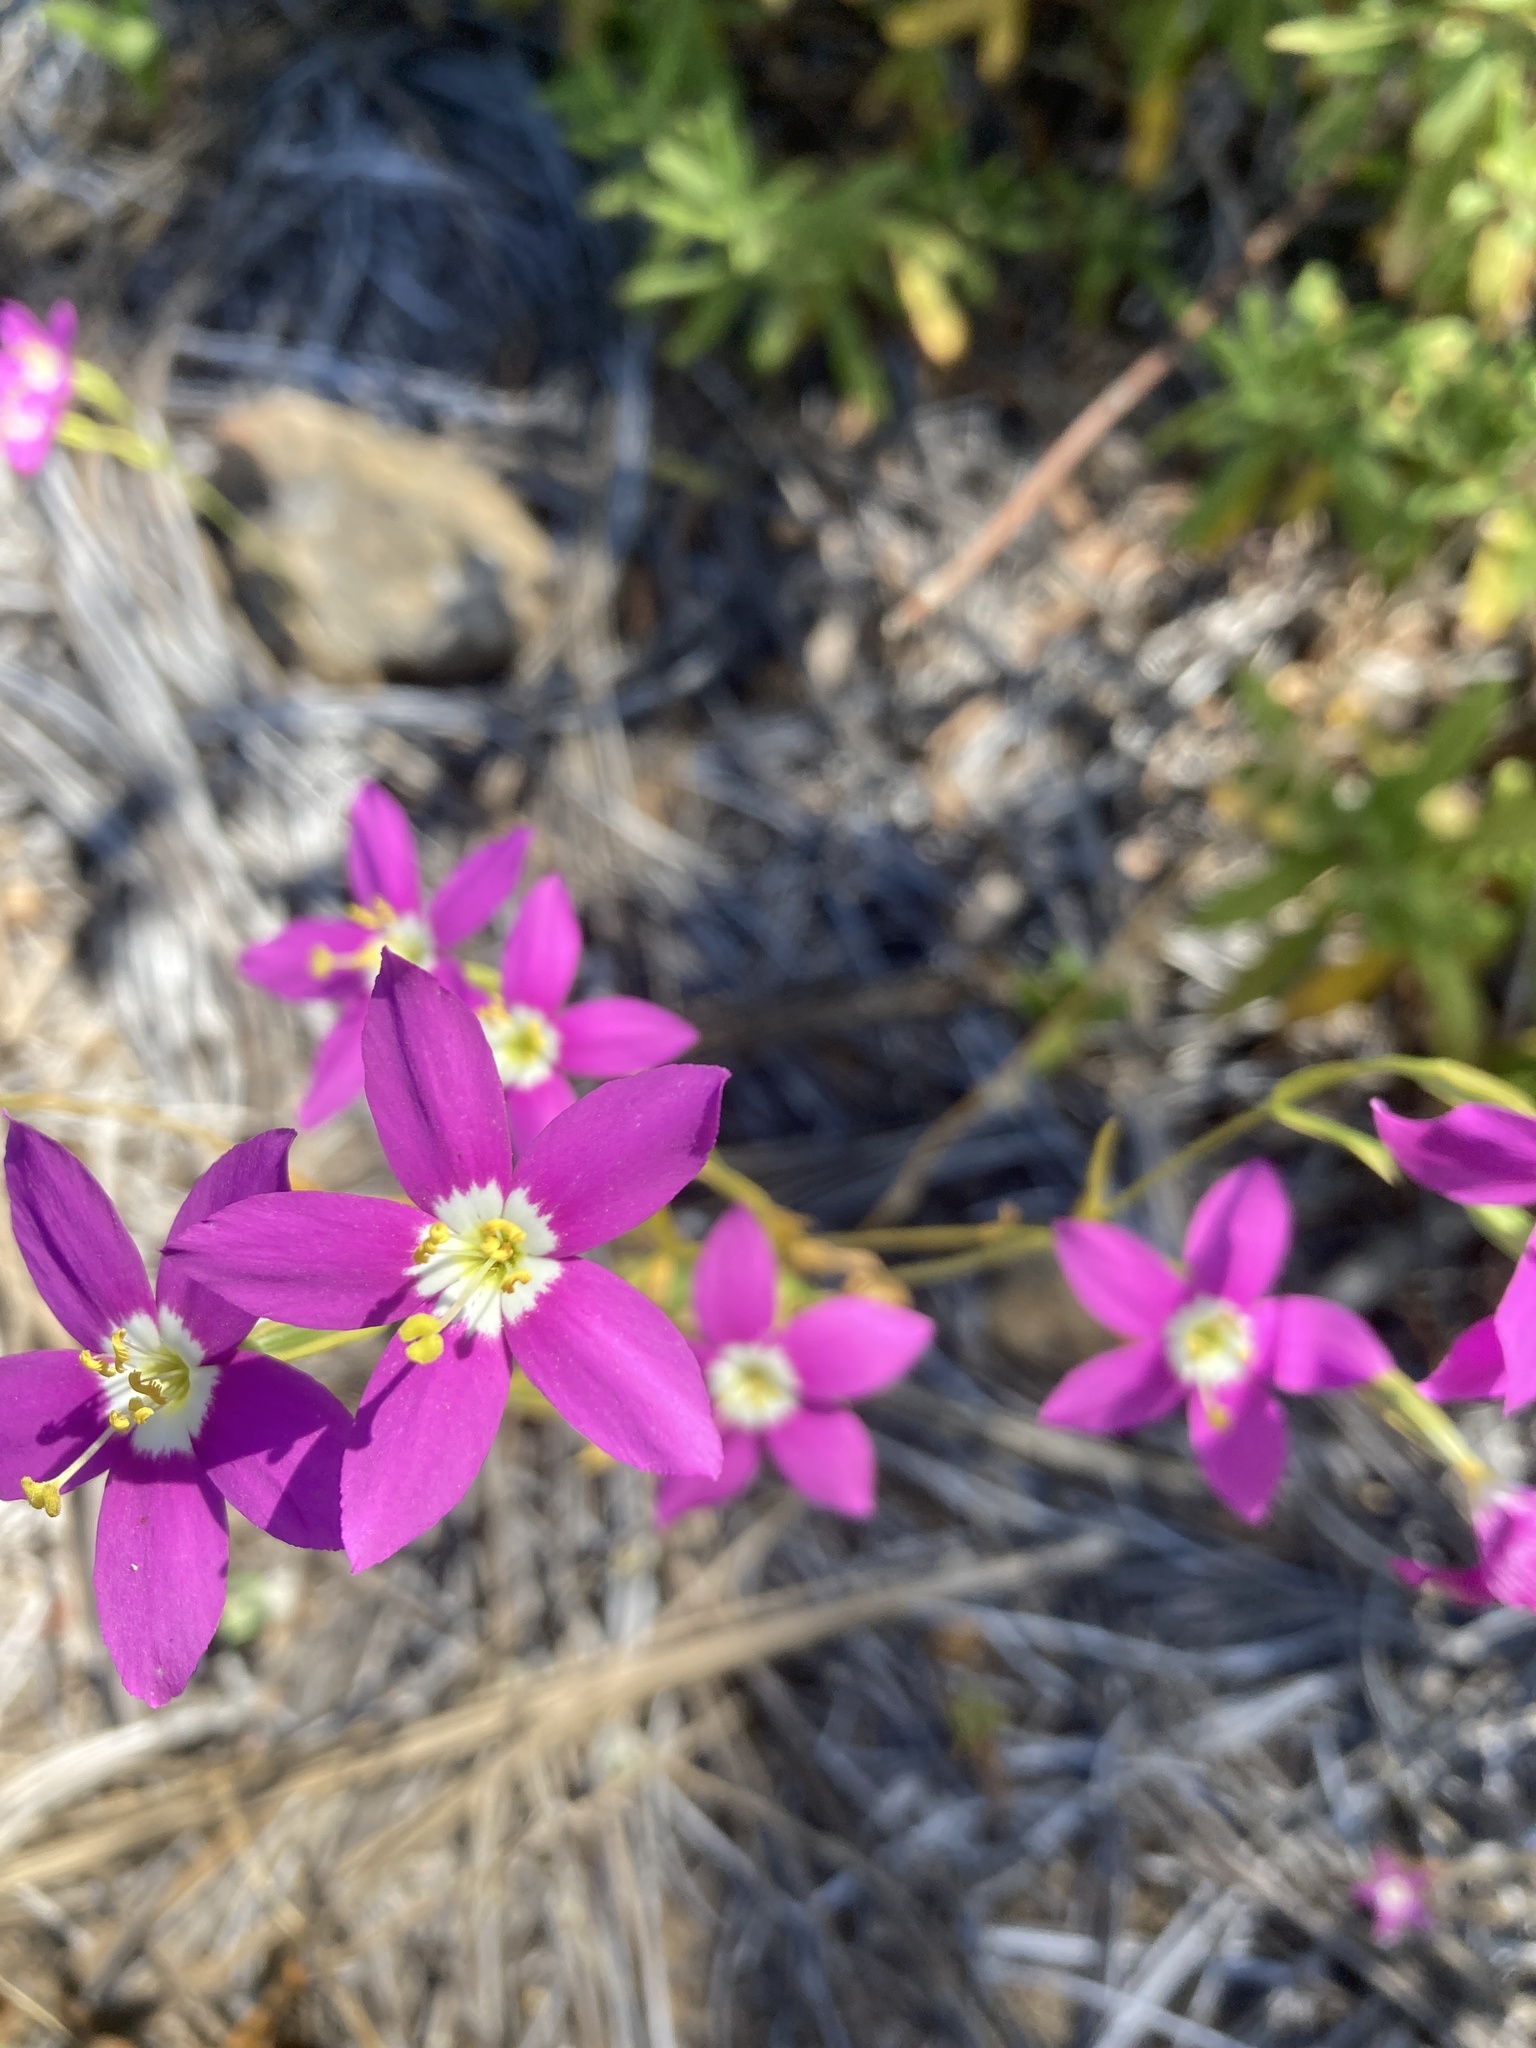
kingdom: Plantae
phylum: Tracheophyta
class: Magnoliopsida
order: Gentianales
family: Gentianaceae
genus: Zeltnera
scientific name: Zeltnera venusta
